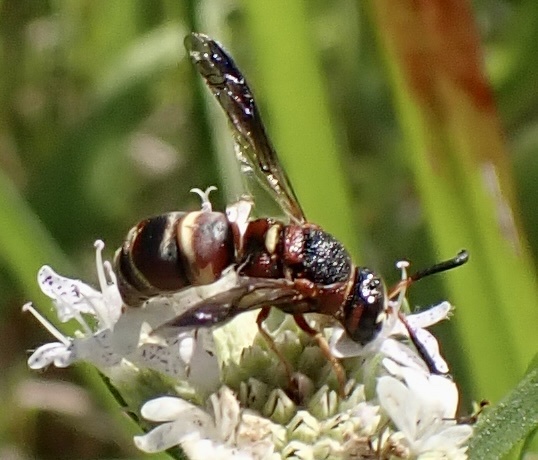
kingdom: Animalia
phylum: Arthropoda
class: Insecta
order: Hymenoptera
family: Eumenidae
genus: Euodynerus
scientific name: Euodynerus hidalgo
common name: Wasp
